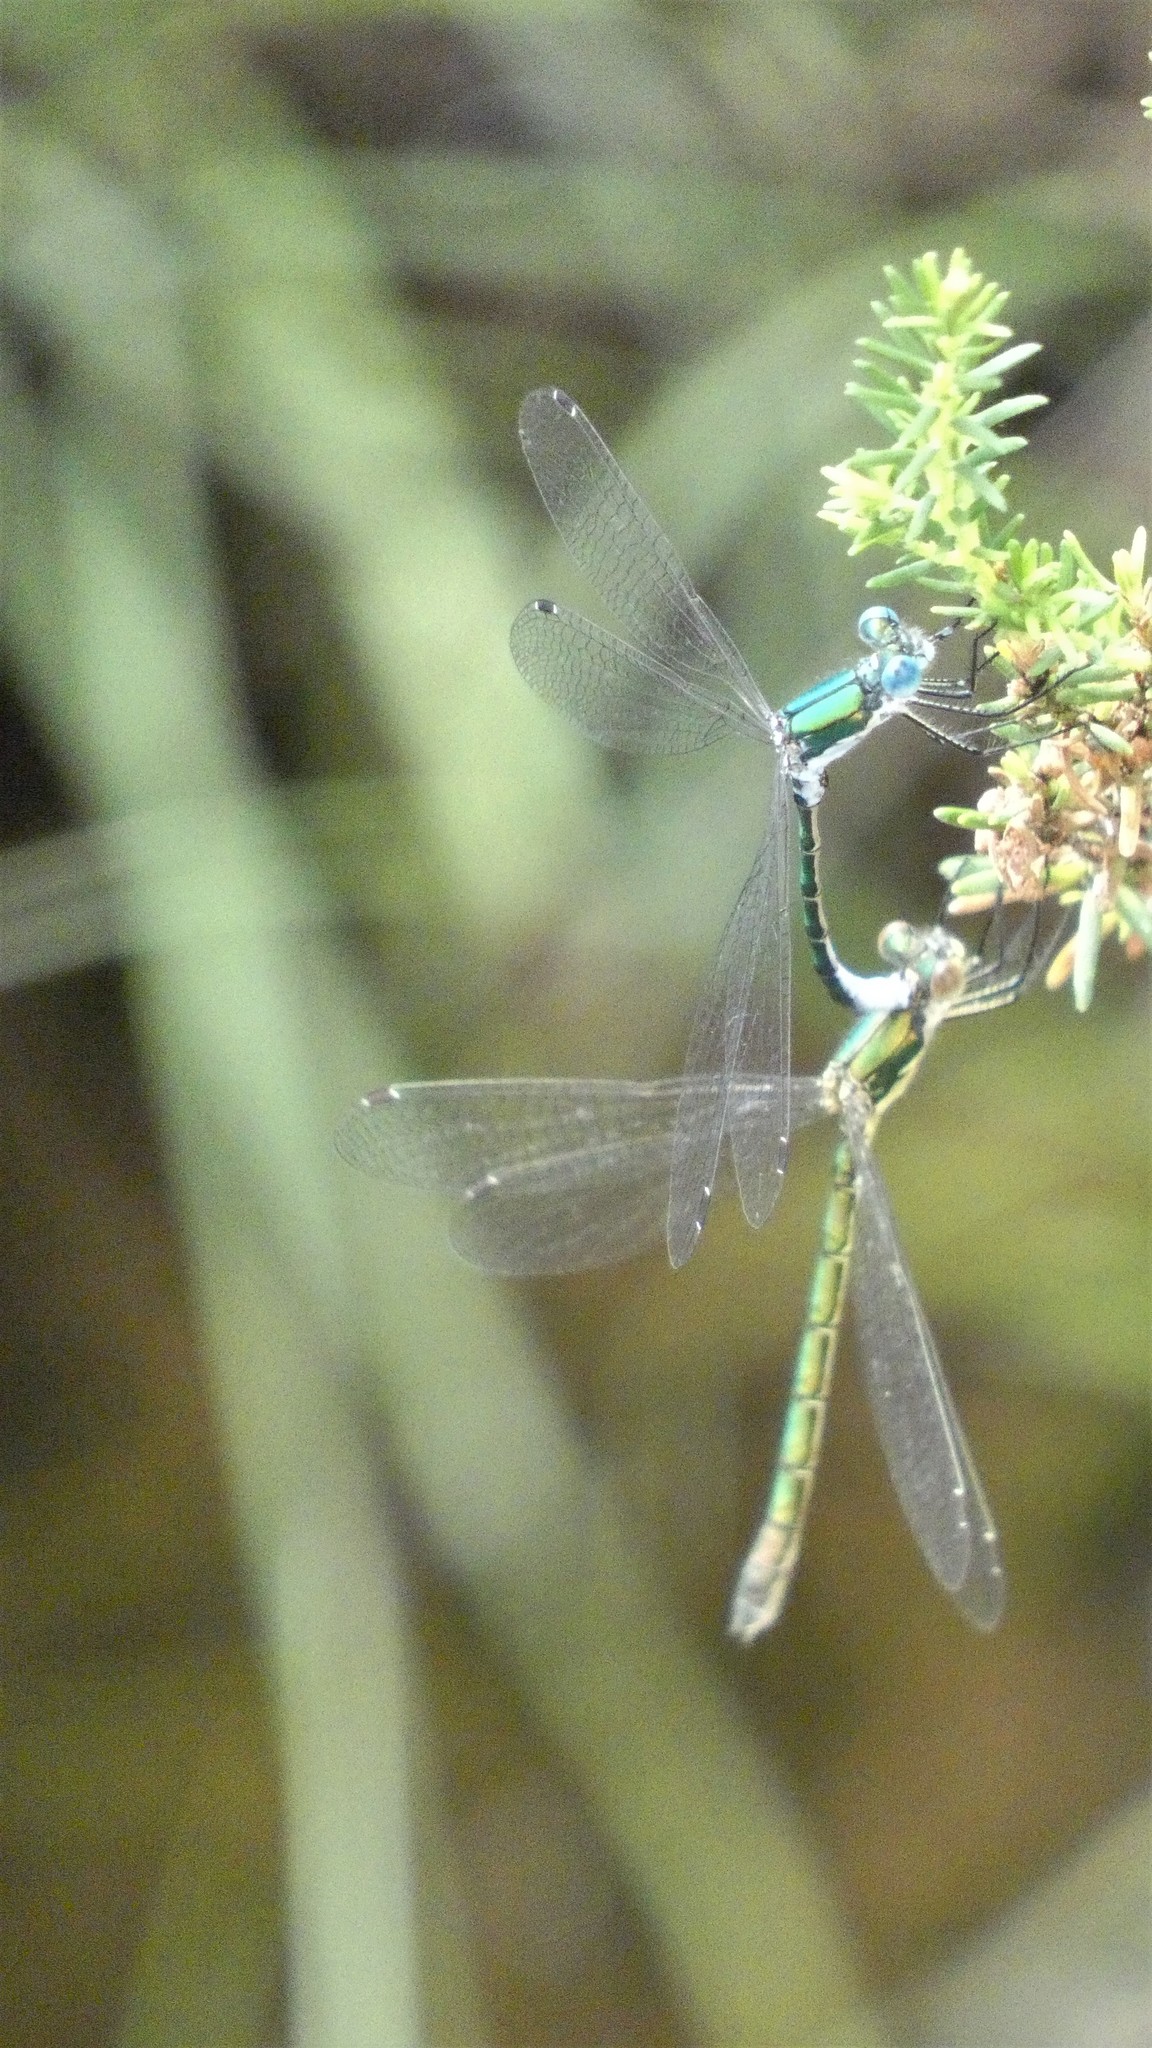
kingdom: Animalia
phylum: Arthropoda
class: Insecta
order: Odonata
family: Lestidae
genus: Lestes
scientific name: Lestes dryas
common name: Scarce emerald damselfly
